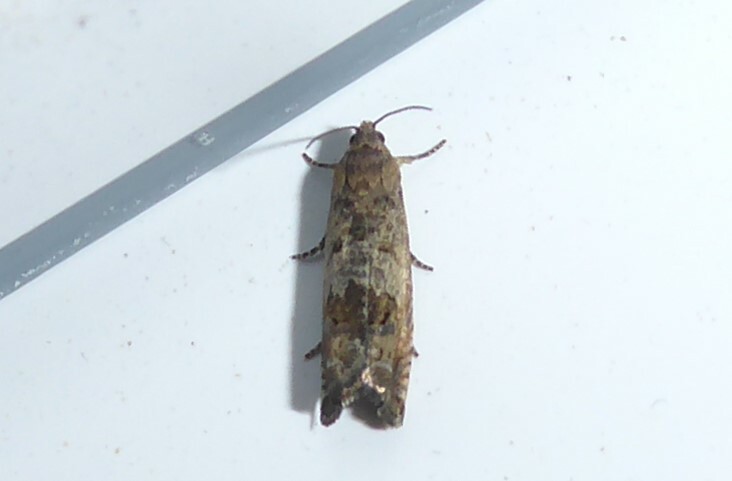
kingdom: Animalia
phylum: Arthropoda
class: Insecta
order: Lepidoptera
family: Tortricidae
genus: Cydia
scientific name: Cydia succedana
